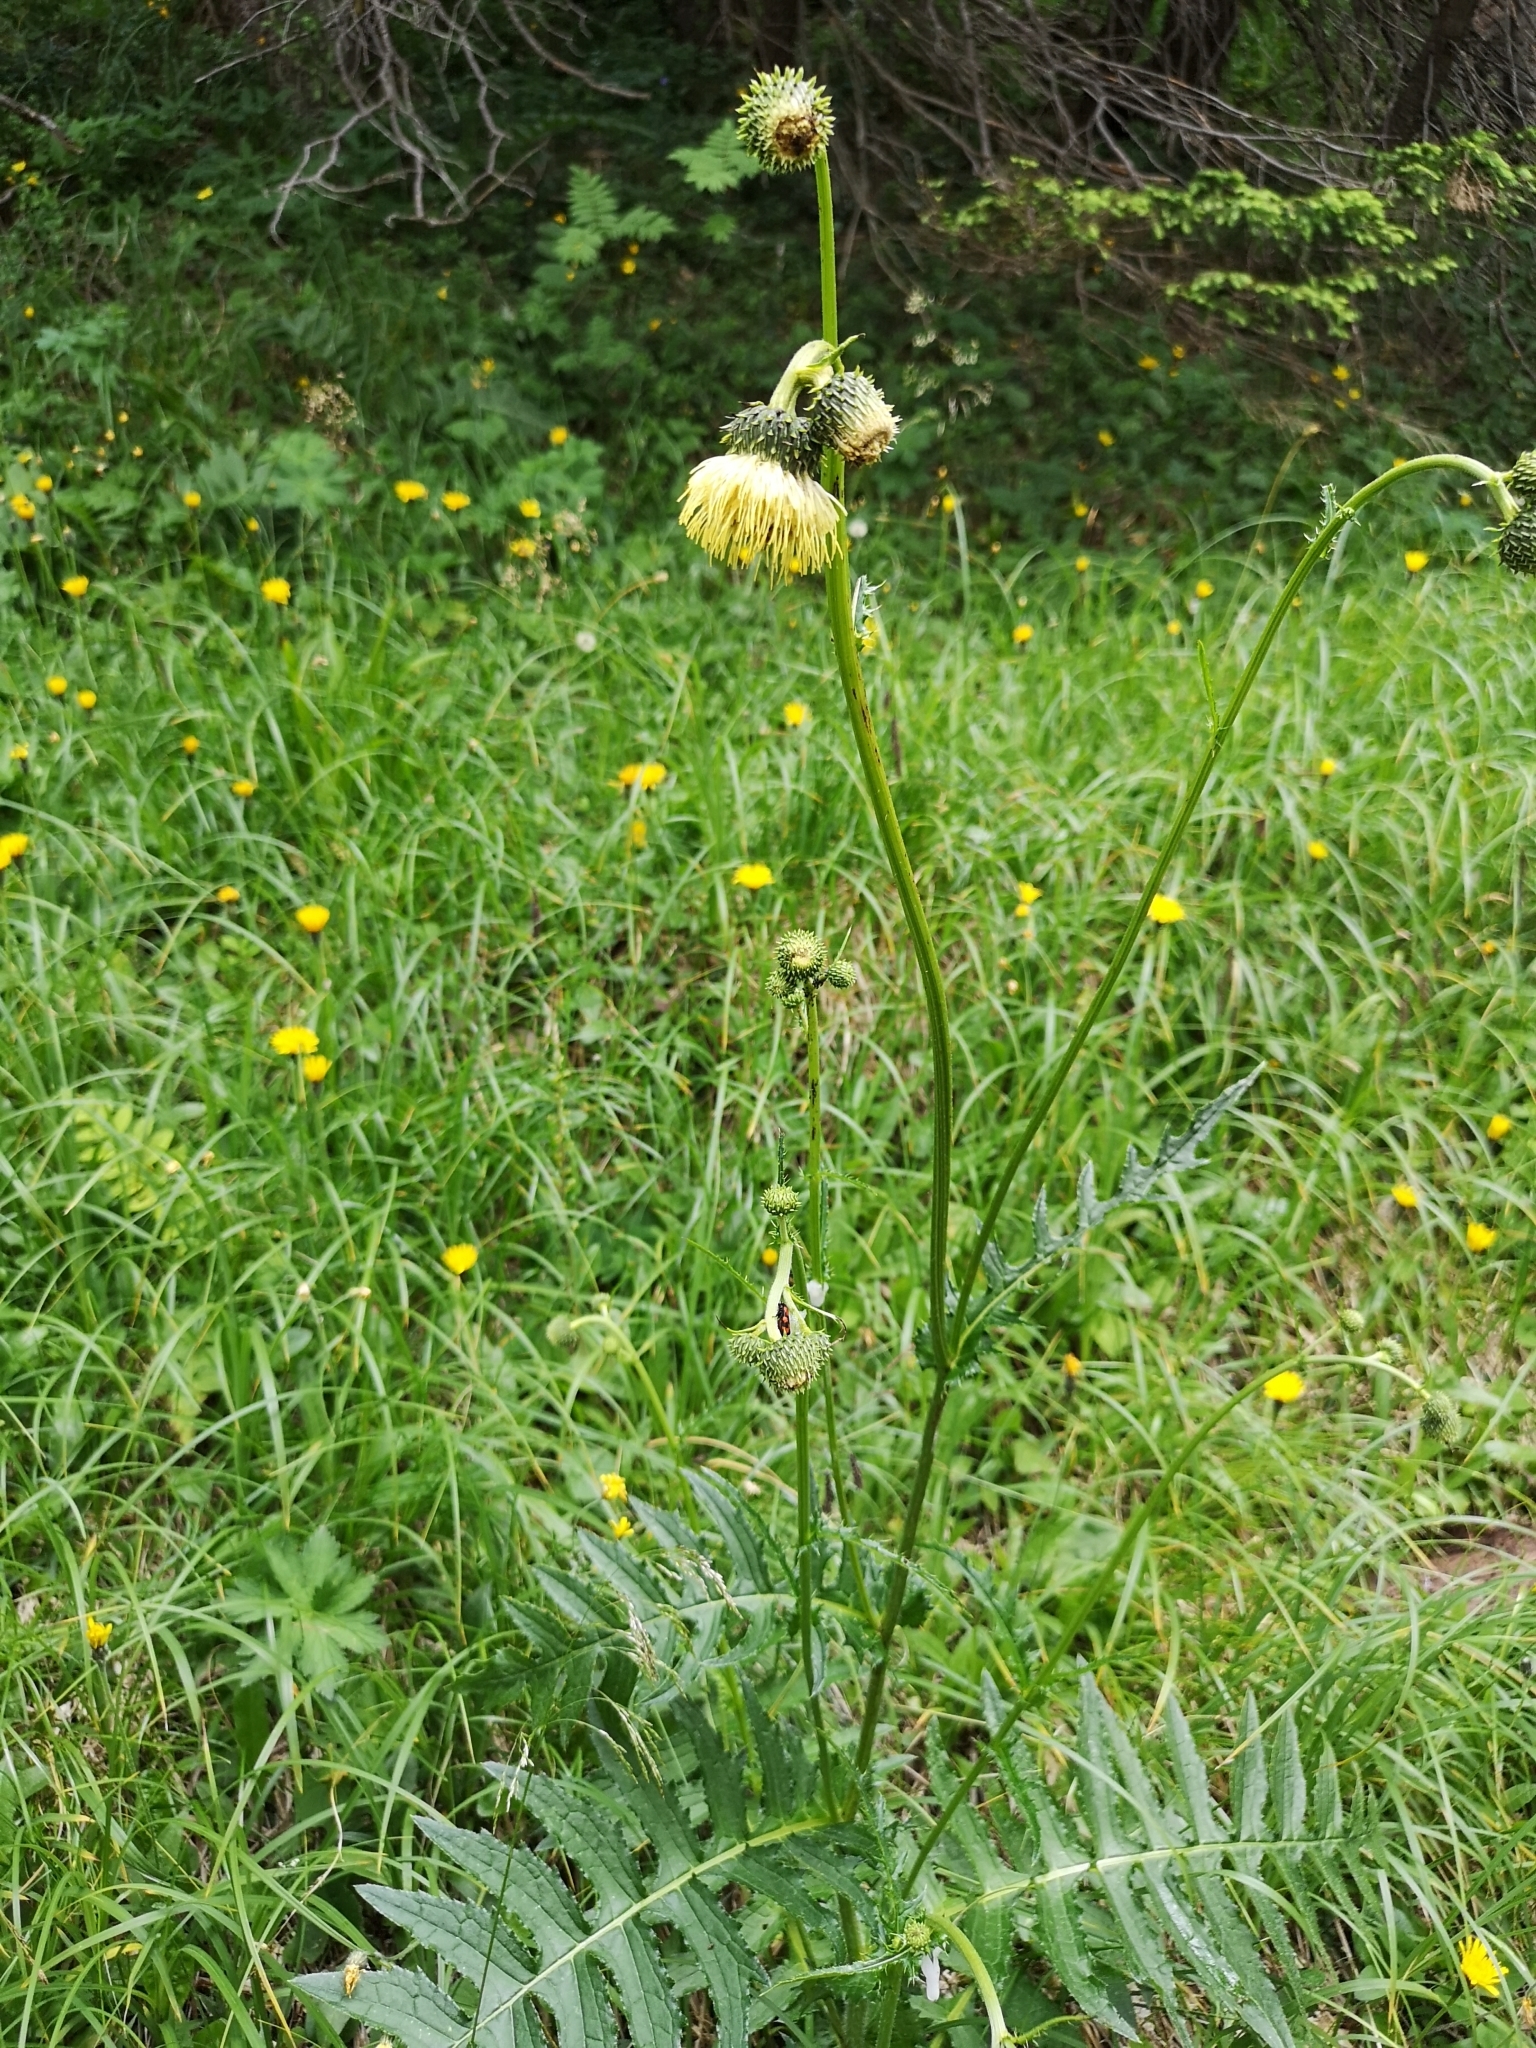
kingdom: Plantae
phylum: Tracheophyta
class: Magnoliopsida
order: Asterales
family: Asteraceae
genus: Cirsium
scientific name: Cirsium erisithales
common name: Yellow thistle
